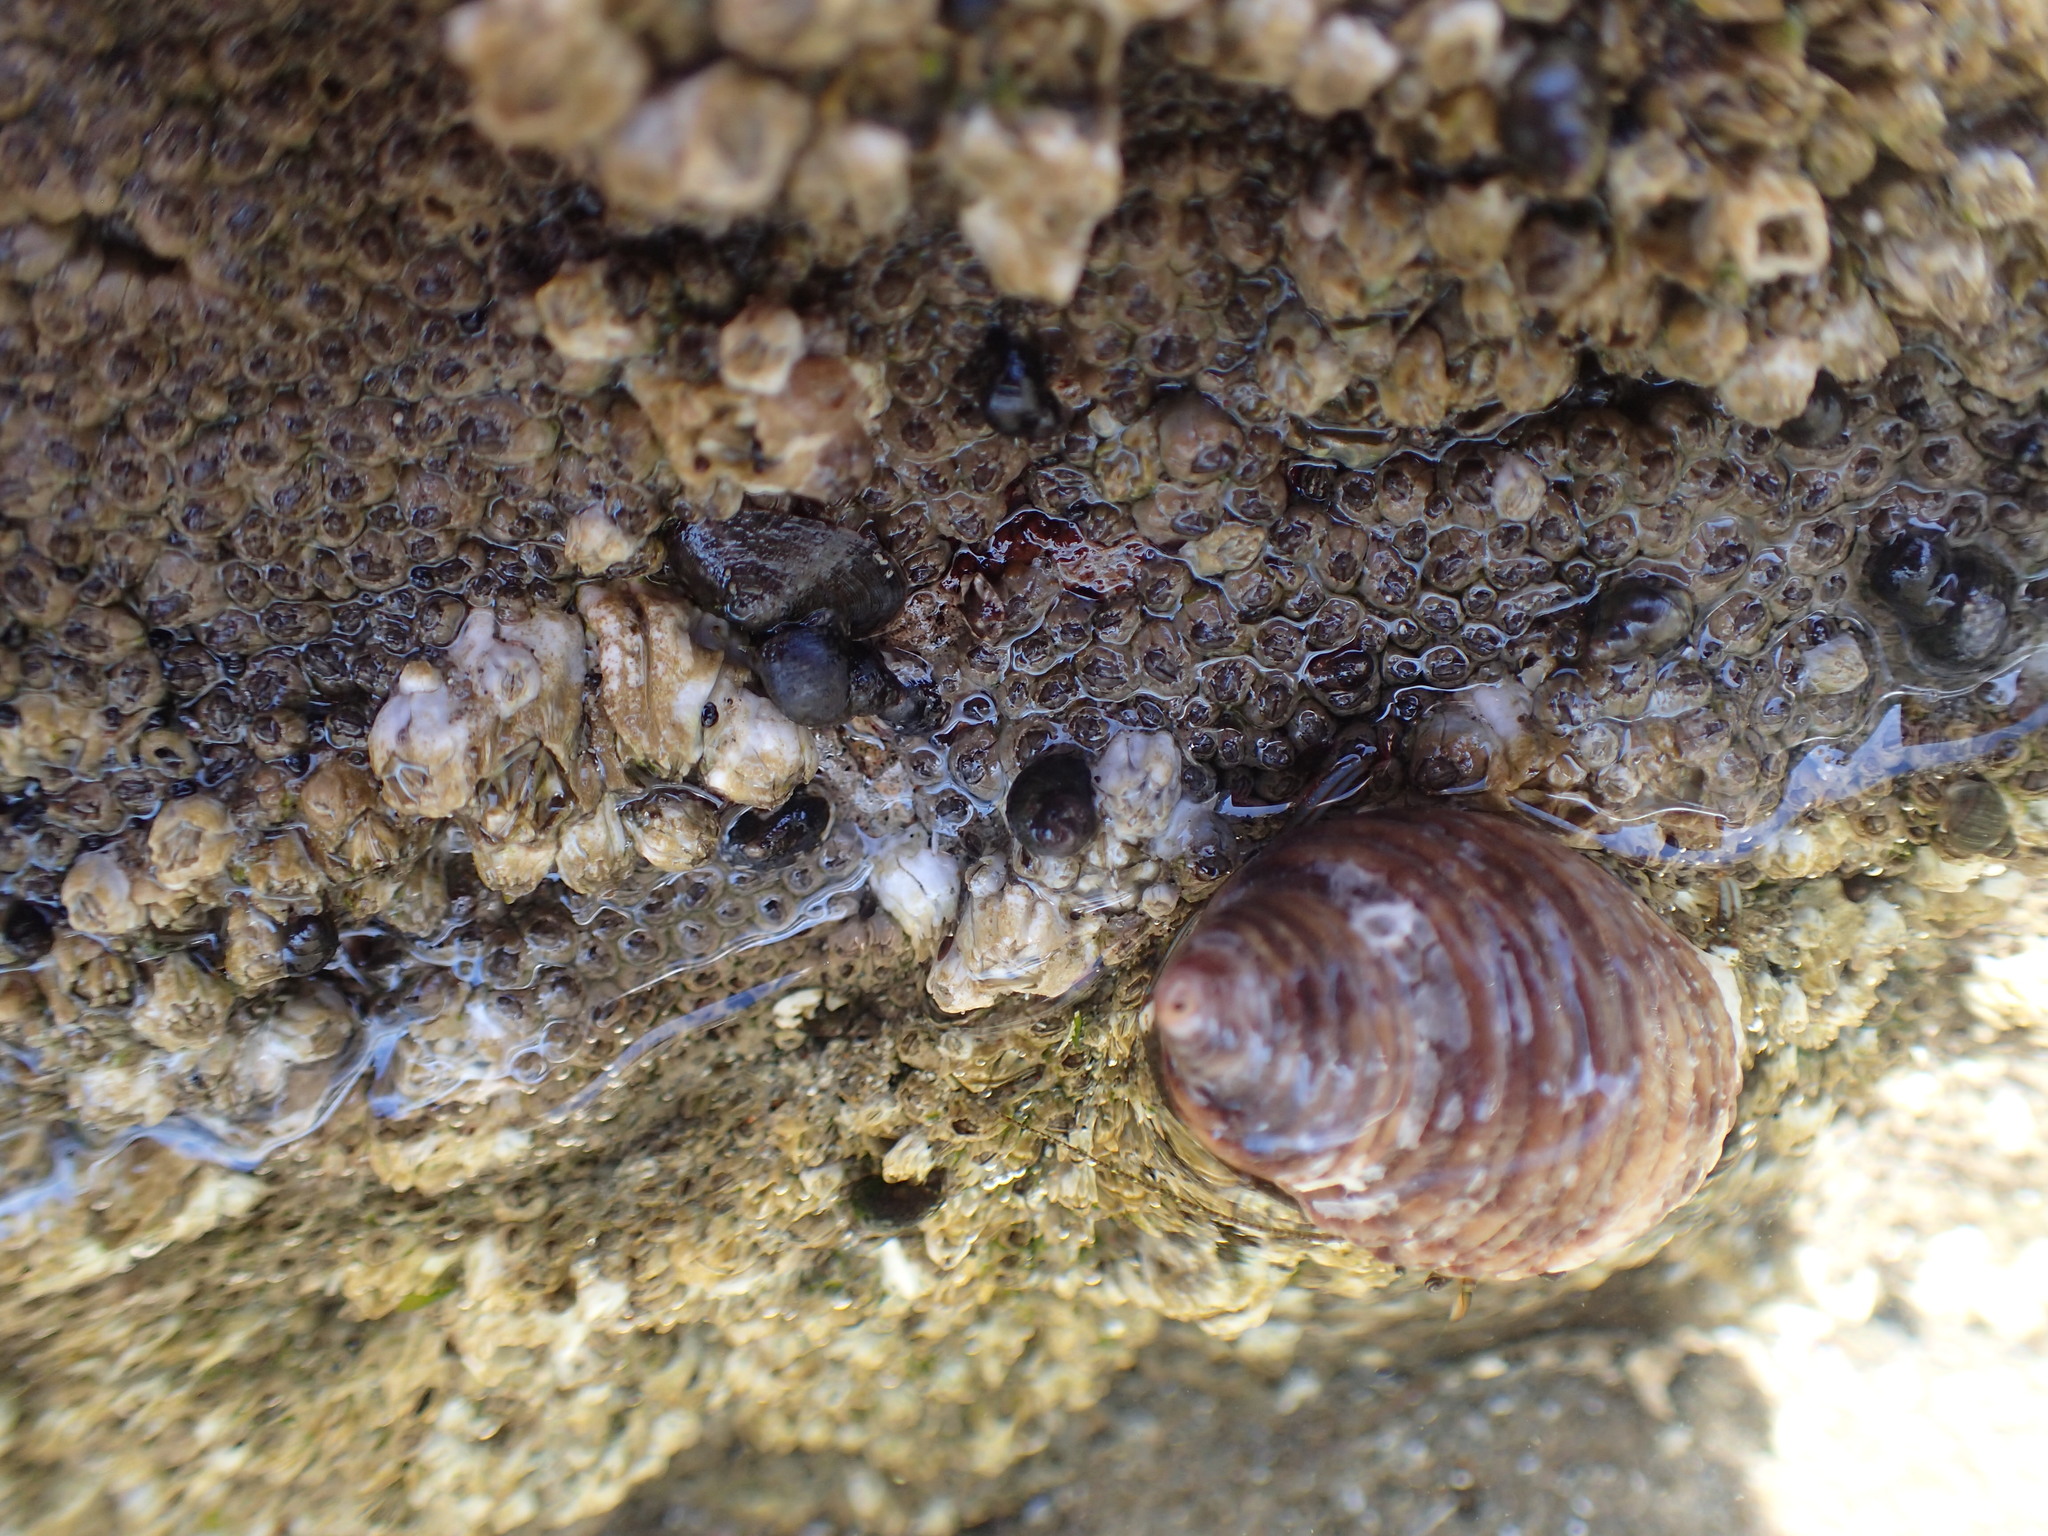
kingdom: Animalia
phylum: Mollusca
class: Gastropoda
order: Neogastropoda
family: Muricidae
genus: Nucella
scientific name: Nucella canaliculata
